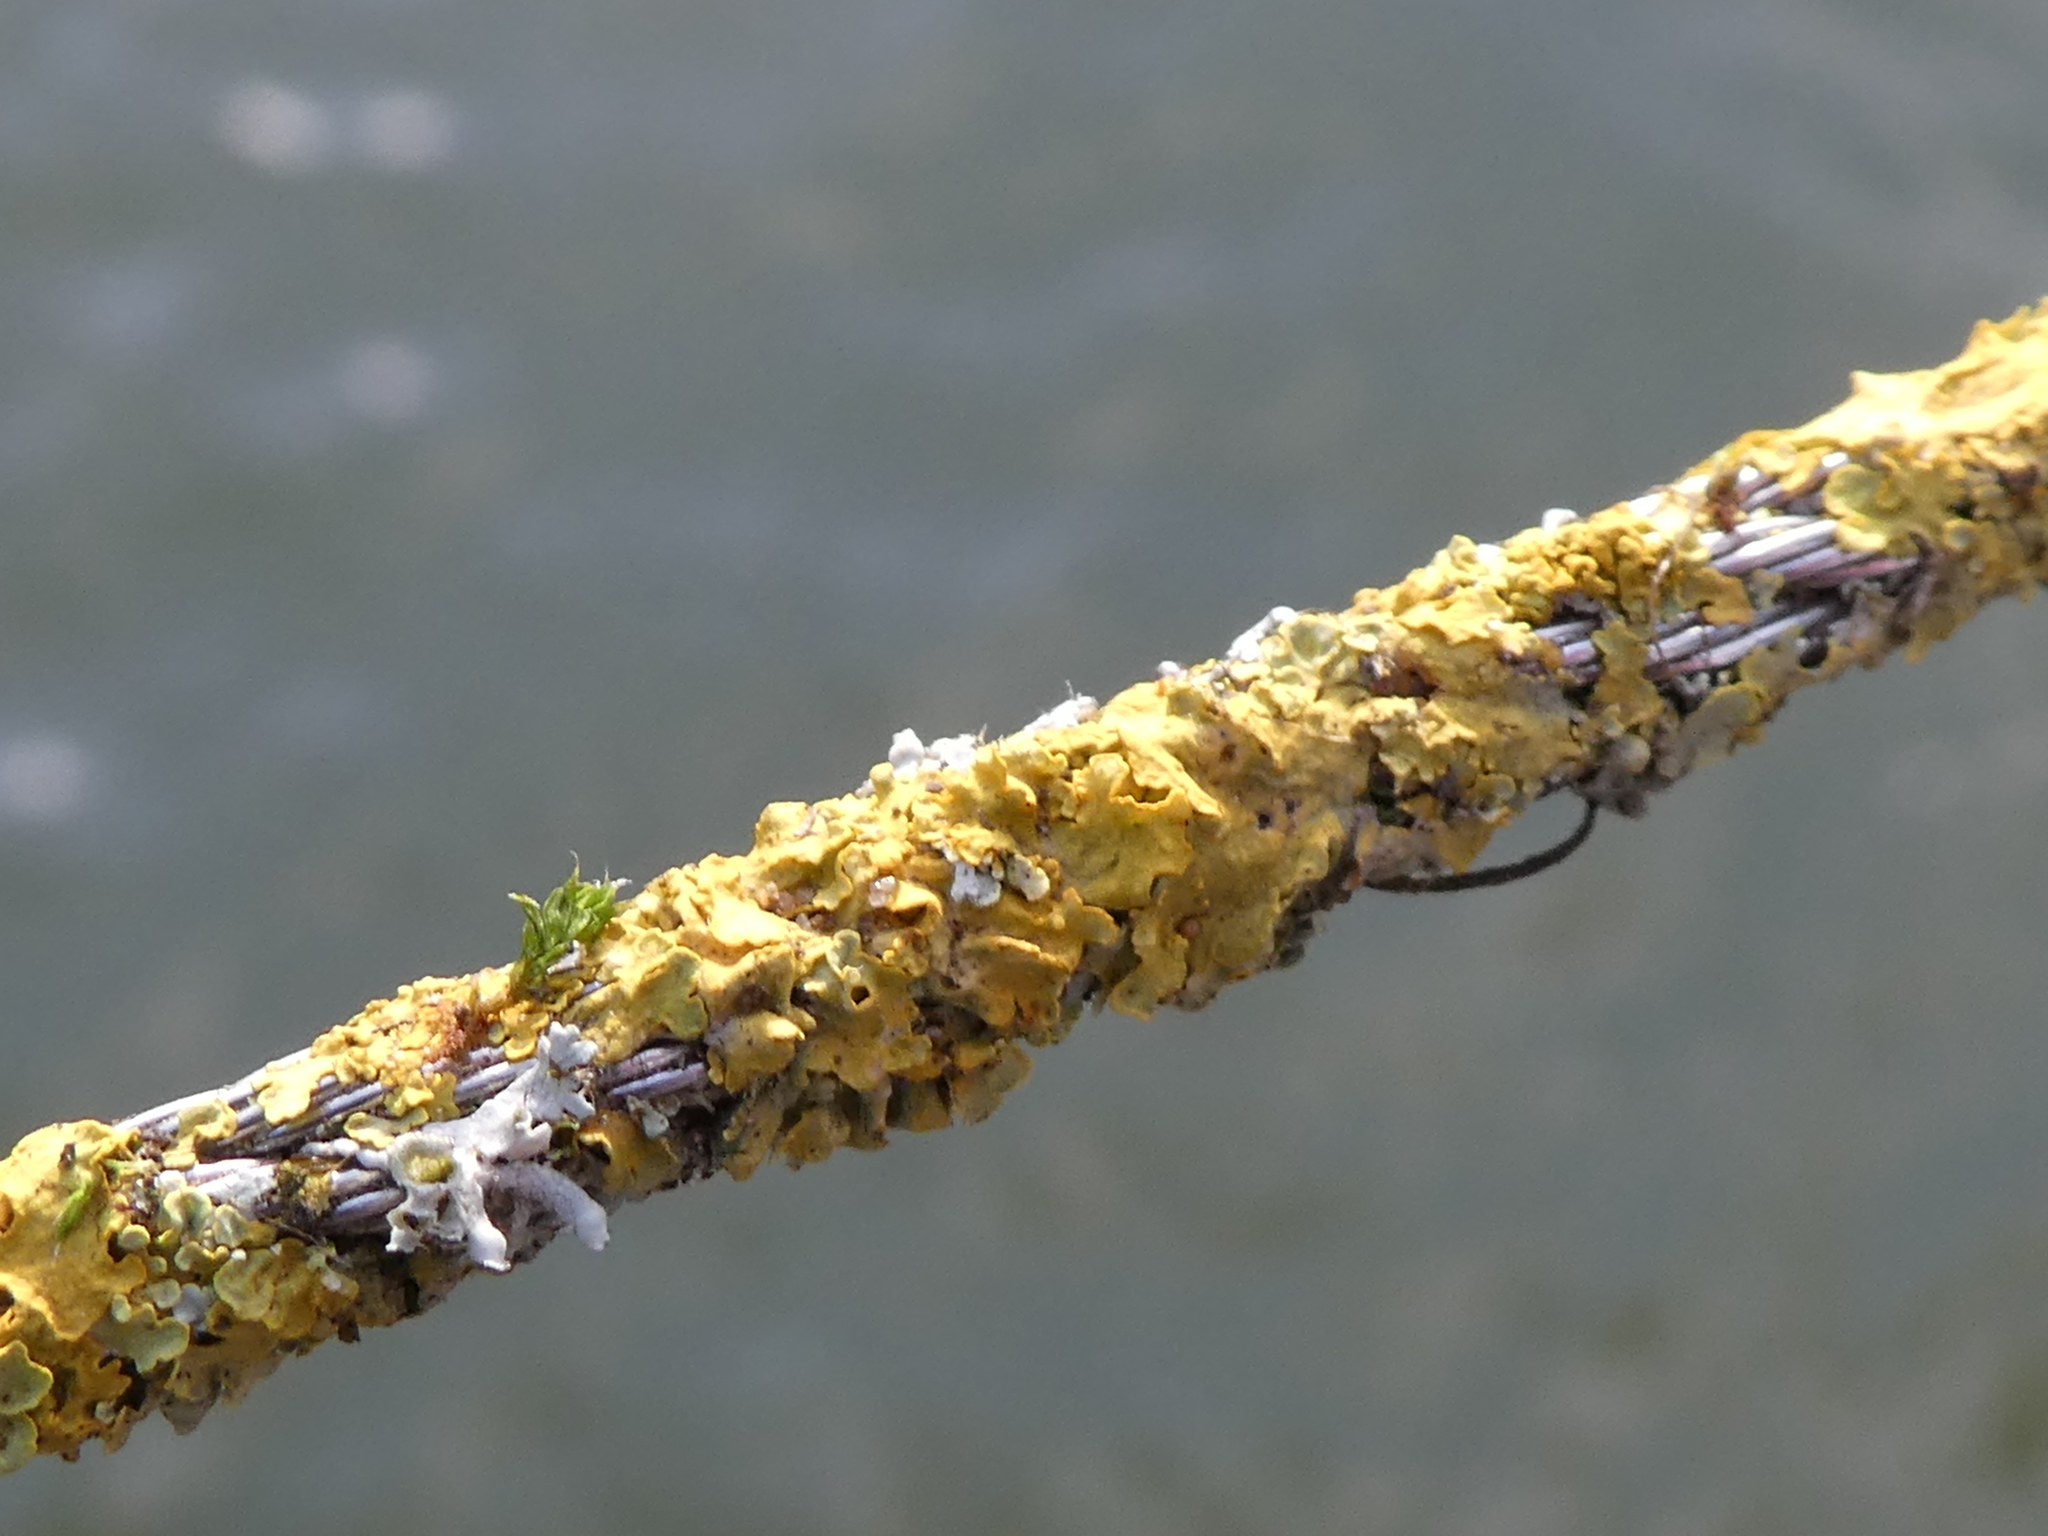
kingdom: Fungi
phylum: Ascomycota
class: Lecanoromycetes
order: Teloschistales
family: Teloschistaceae
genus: Xanthoria
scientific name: Xanthoria parietina
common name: Common orange lichen
